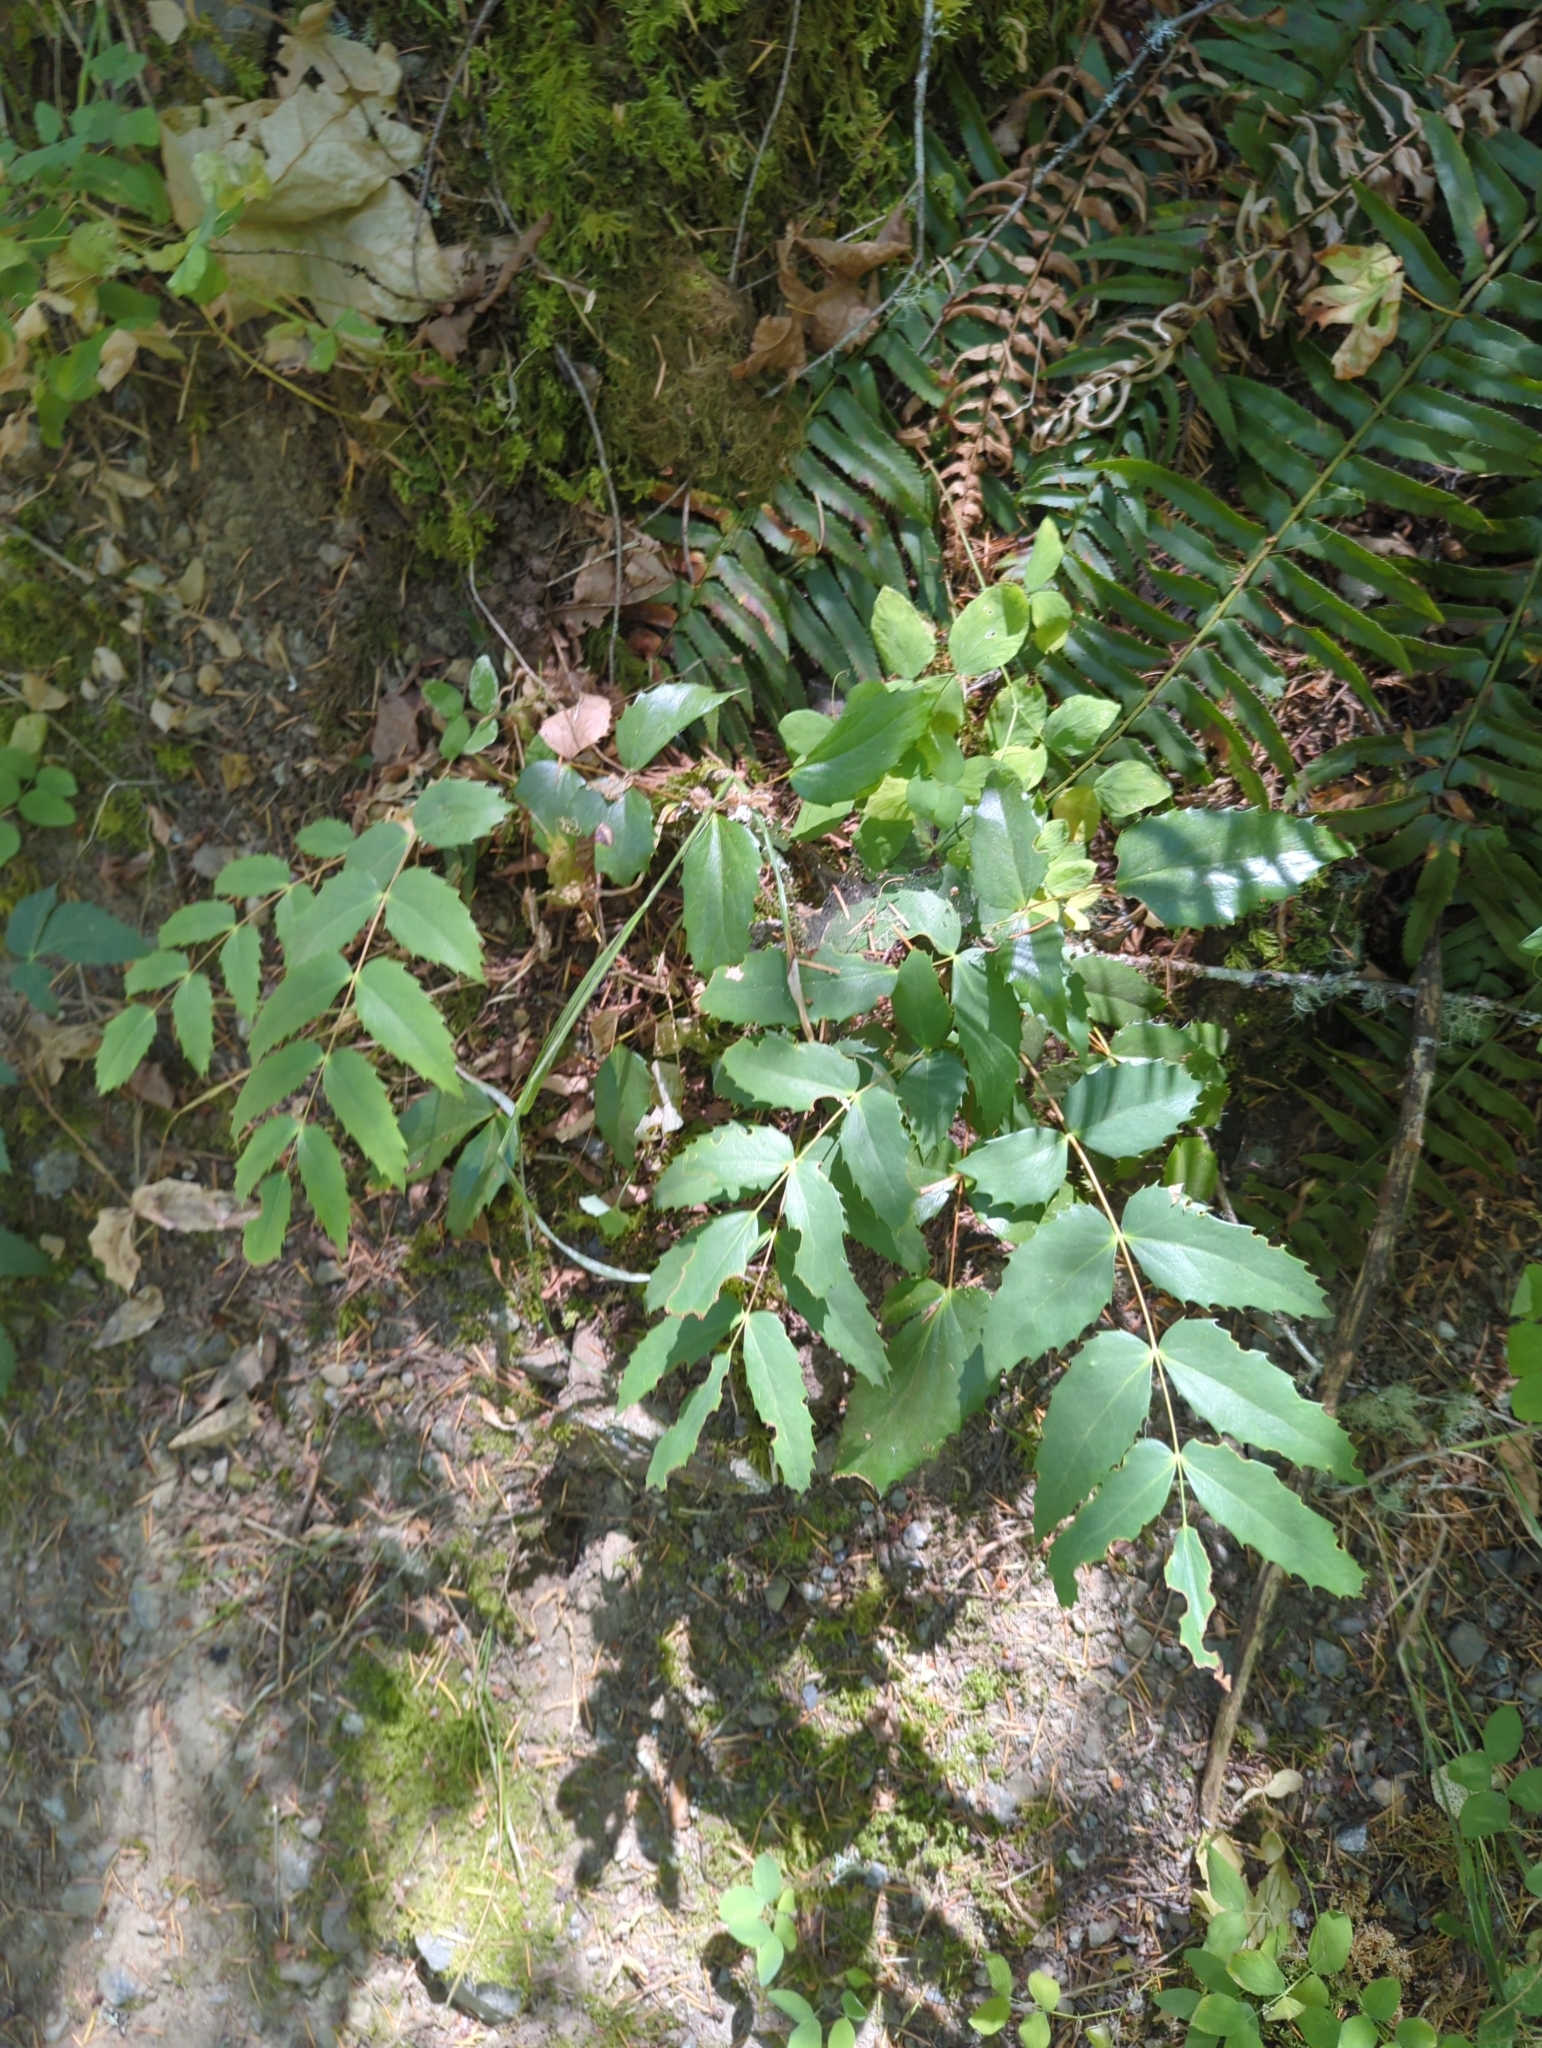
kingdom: Plantae
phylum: Tracheophyta
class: Magnoliopsida
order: Ranunculales
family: Berberidaceae
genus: Mahonia
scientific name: Mahonia nervosa
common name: Cascade oregon-grape
